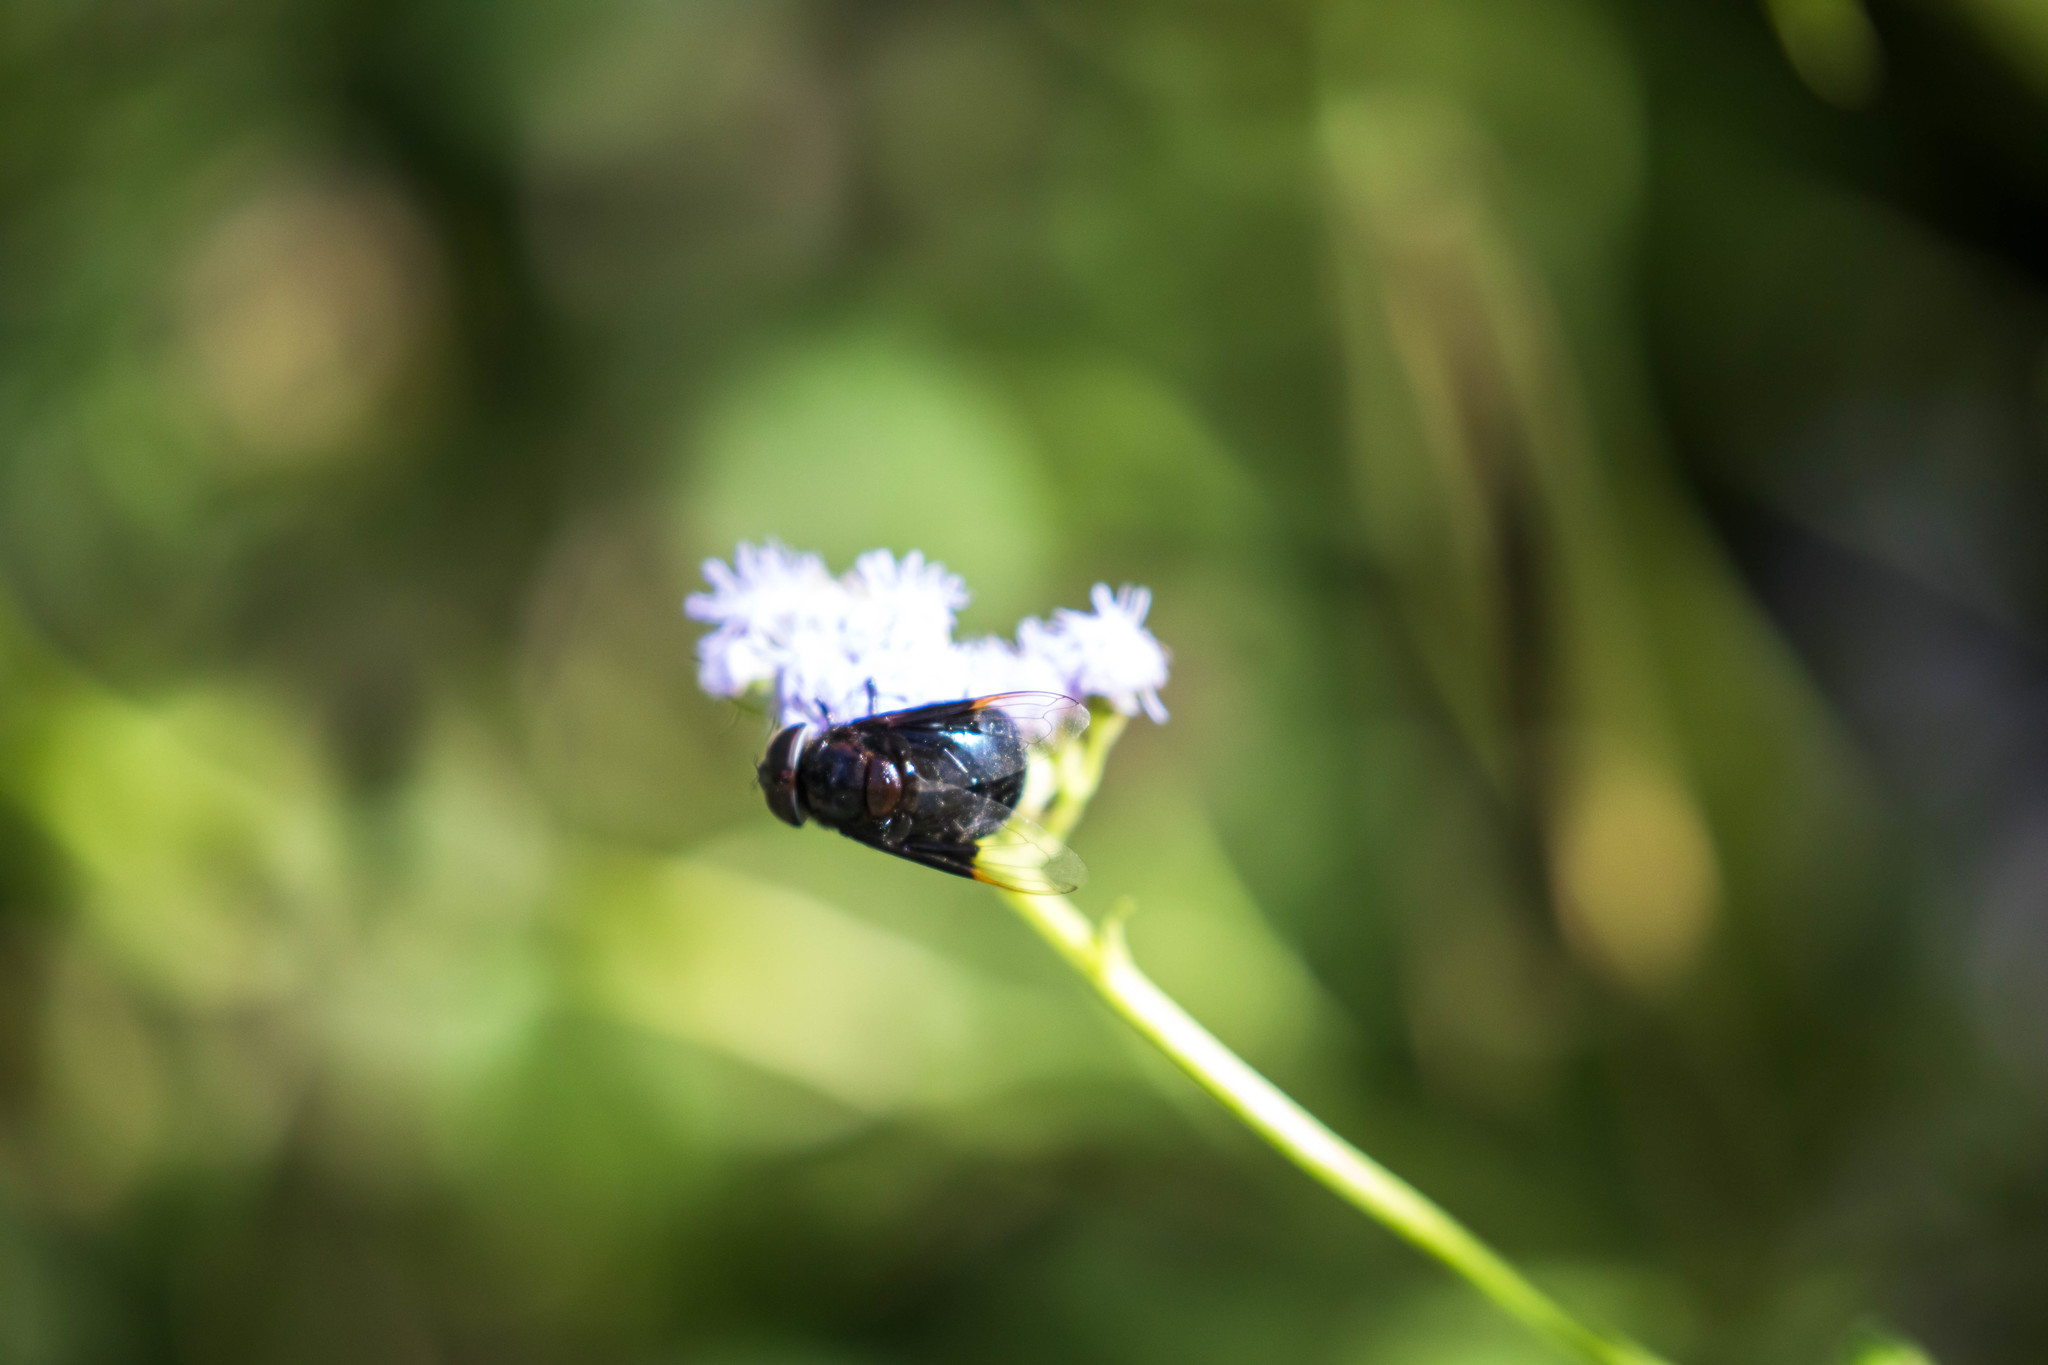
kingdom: Animalia
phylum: Arthropoda
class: Insecta
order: Diptera
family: Syrphidae
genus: Copestylum
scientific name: Copestylum
